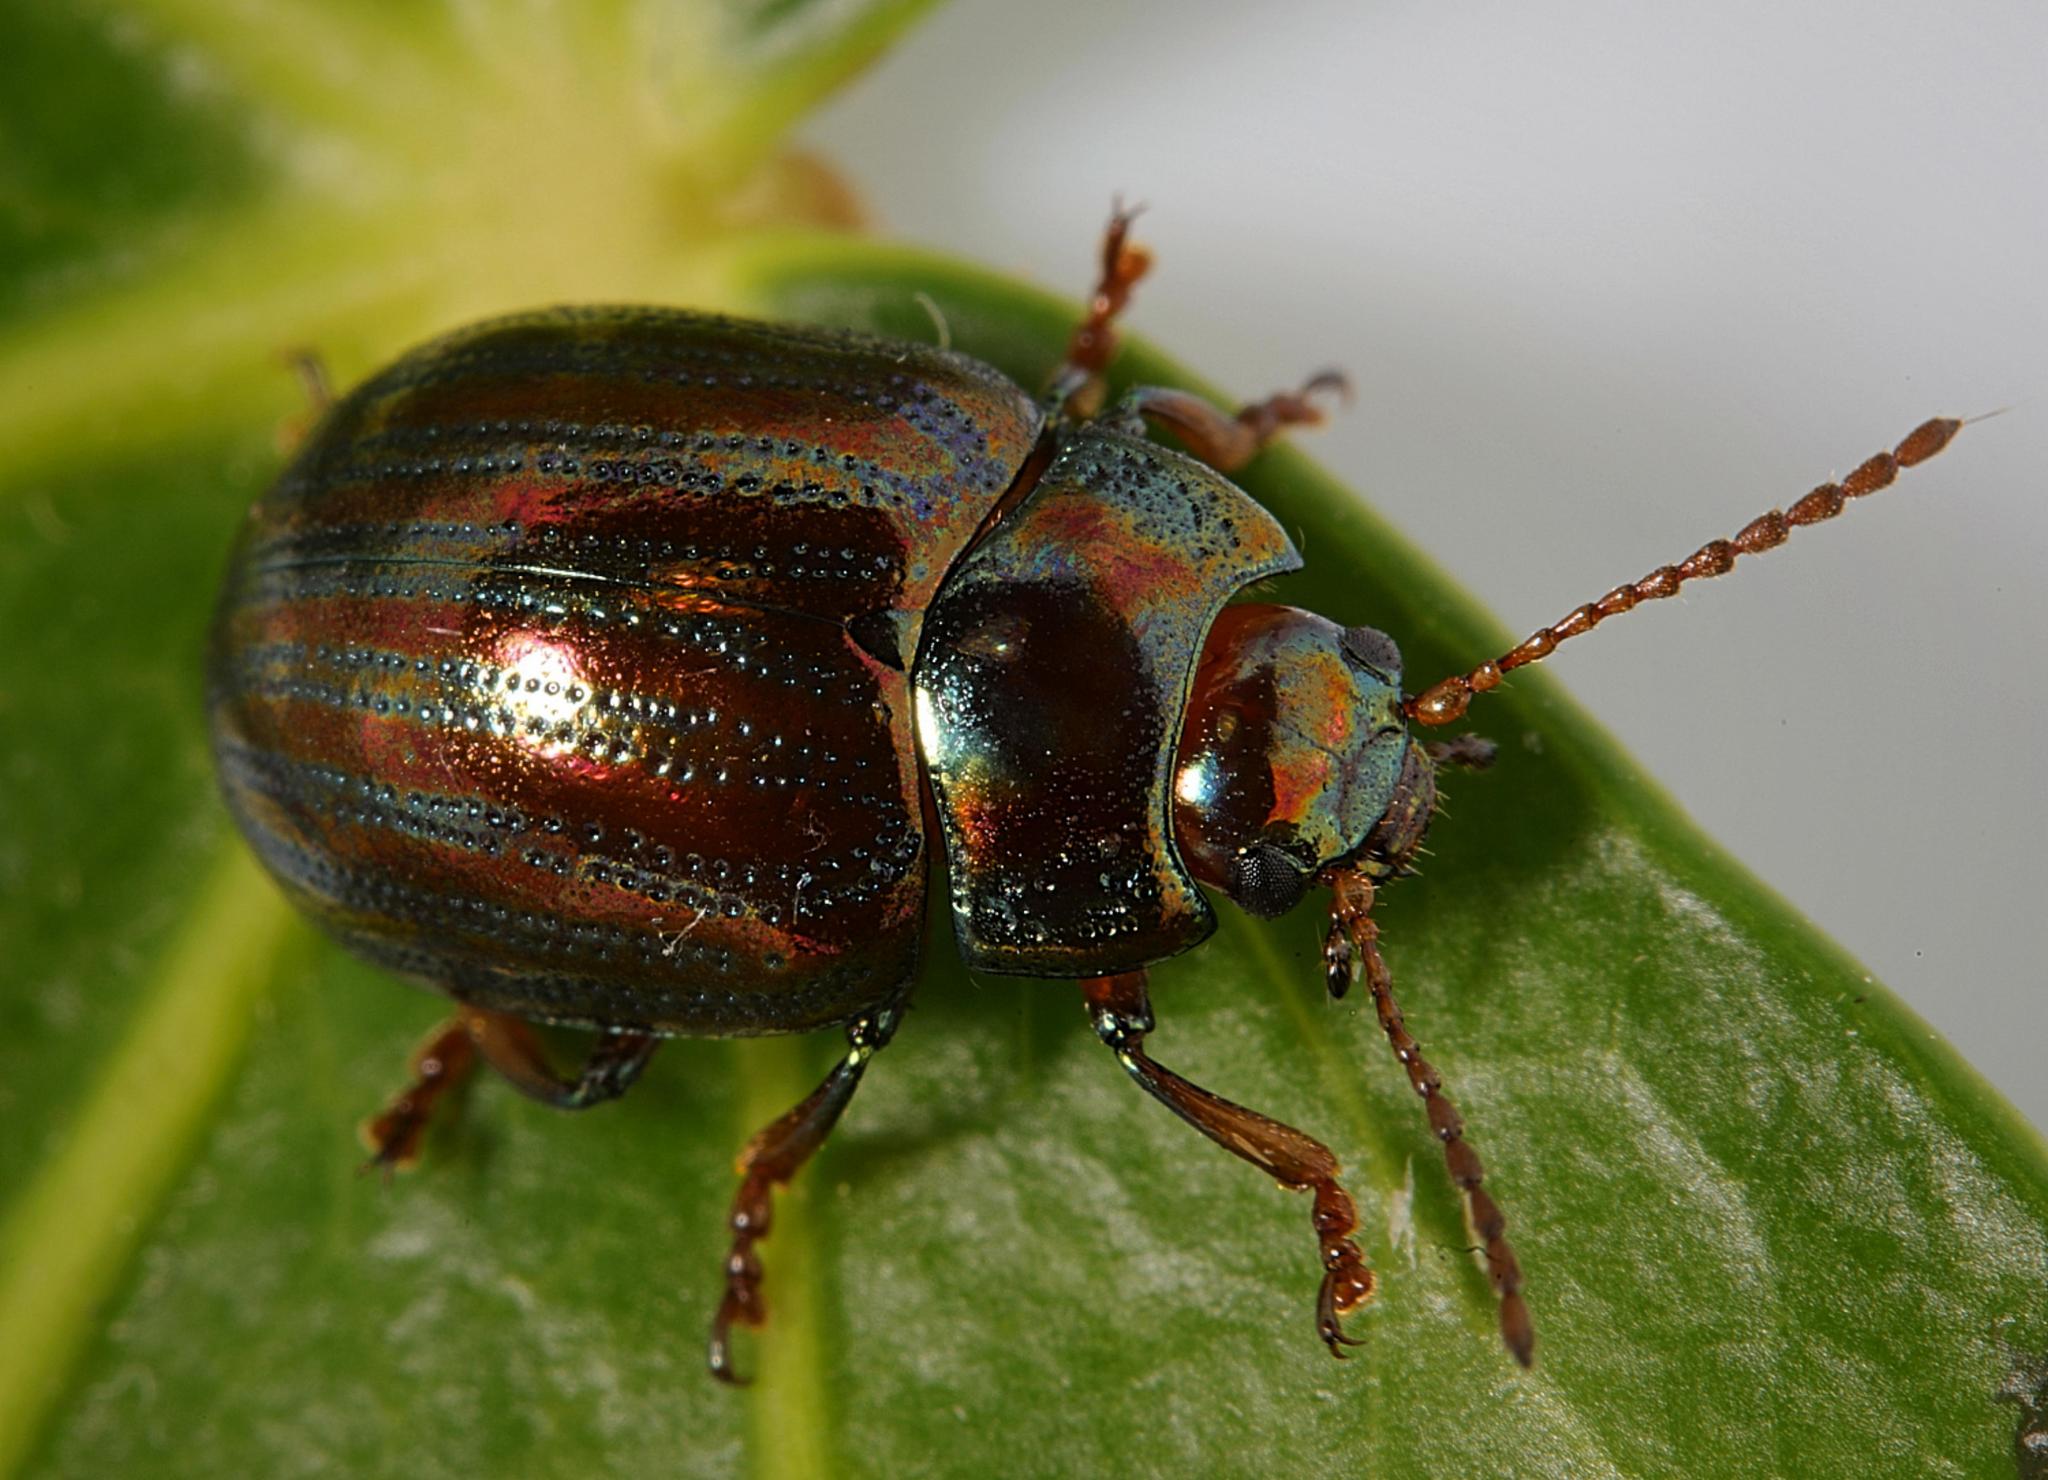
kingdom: Animalia
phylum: Arthropoda
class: Insecta
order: Coleoptera
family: Chrysomelidae
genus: Chrysolina
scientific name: Chrysolina americana
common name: Rosemary beetle
